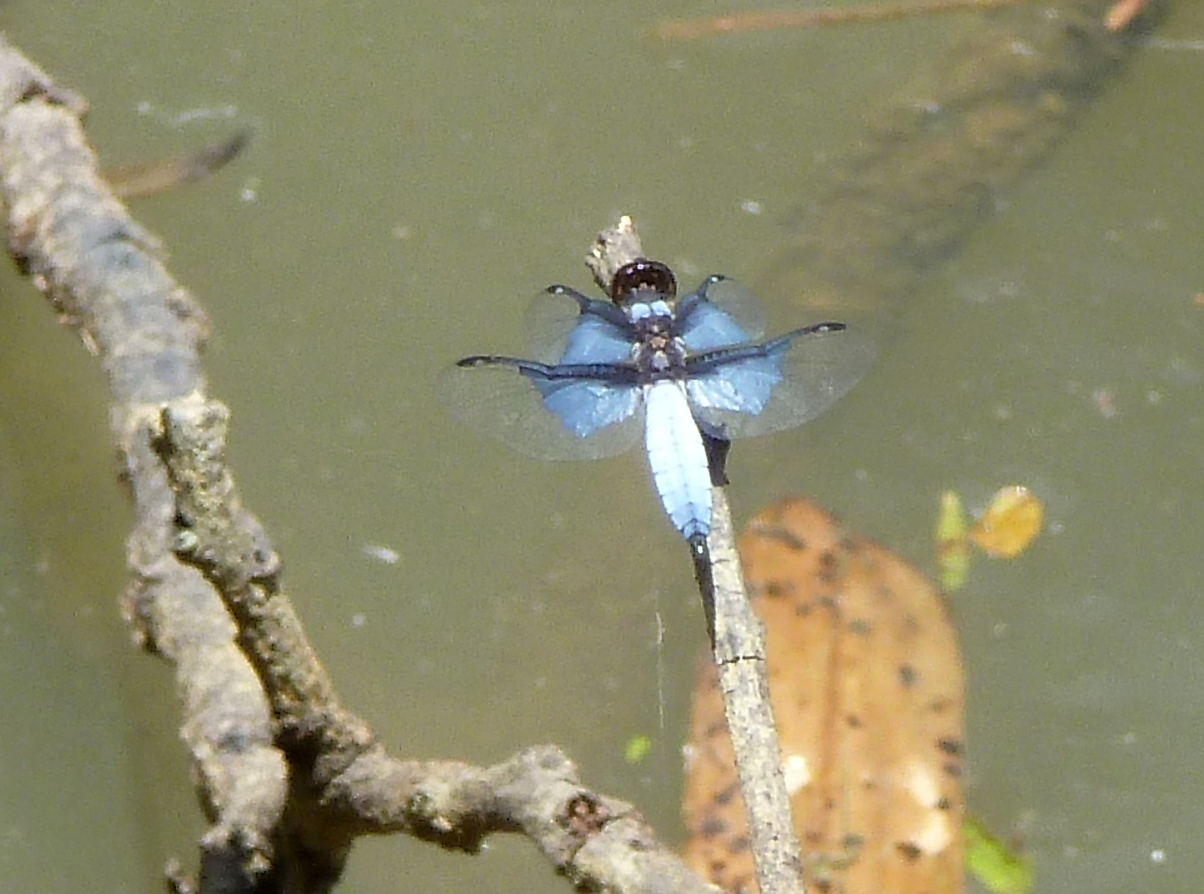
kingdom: Animalia
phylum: Arthropoda
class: Insecta
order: Odonata
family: Libellulidae
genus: Palpopleura
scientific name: Palpopleura vestita
